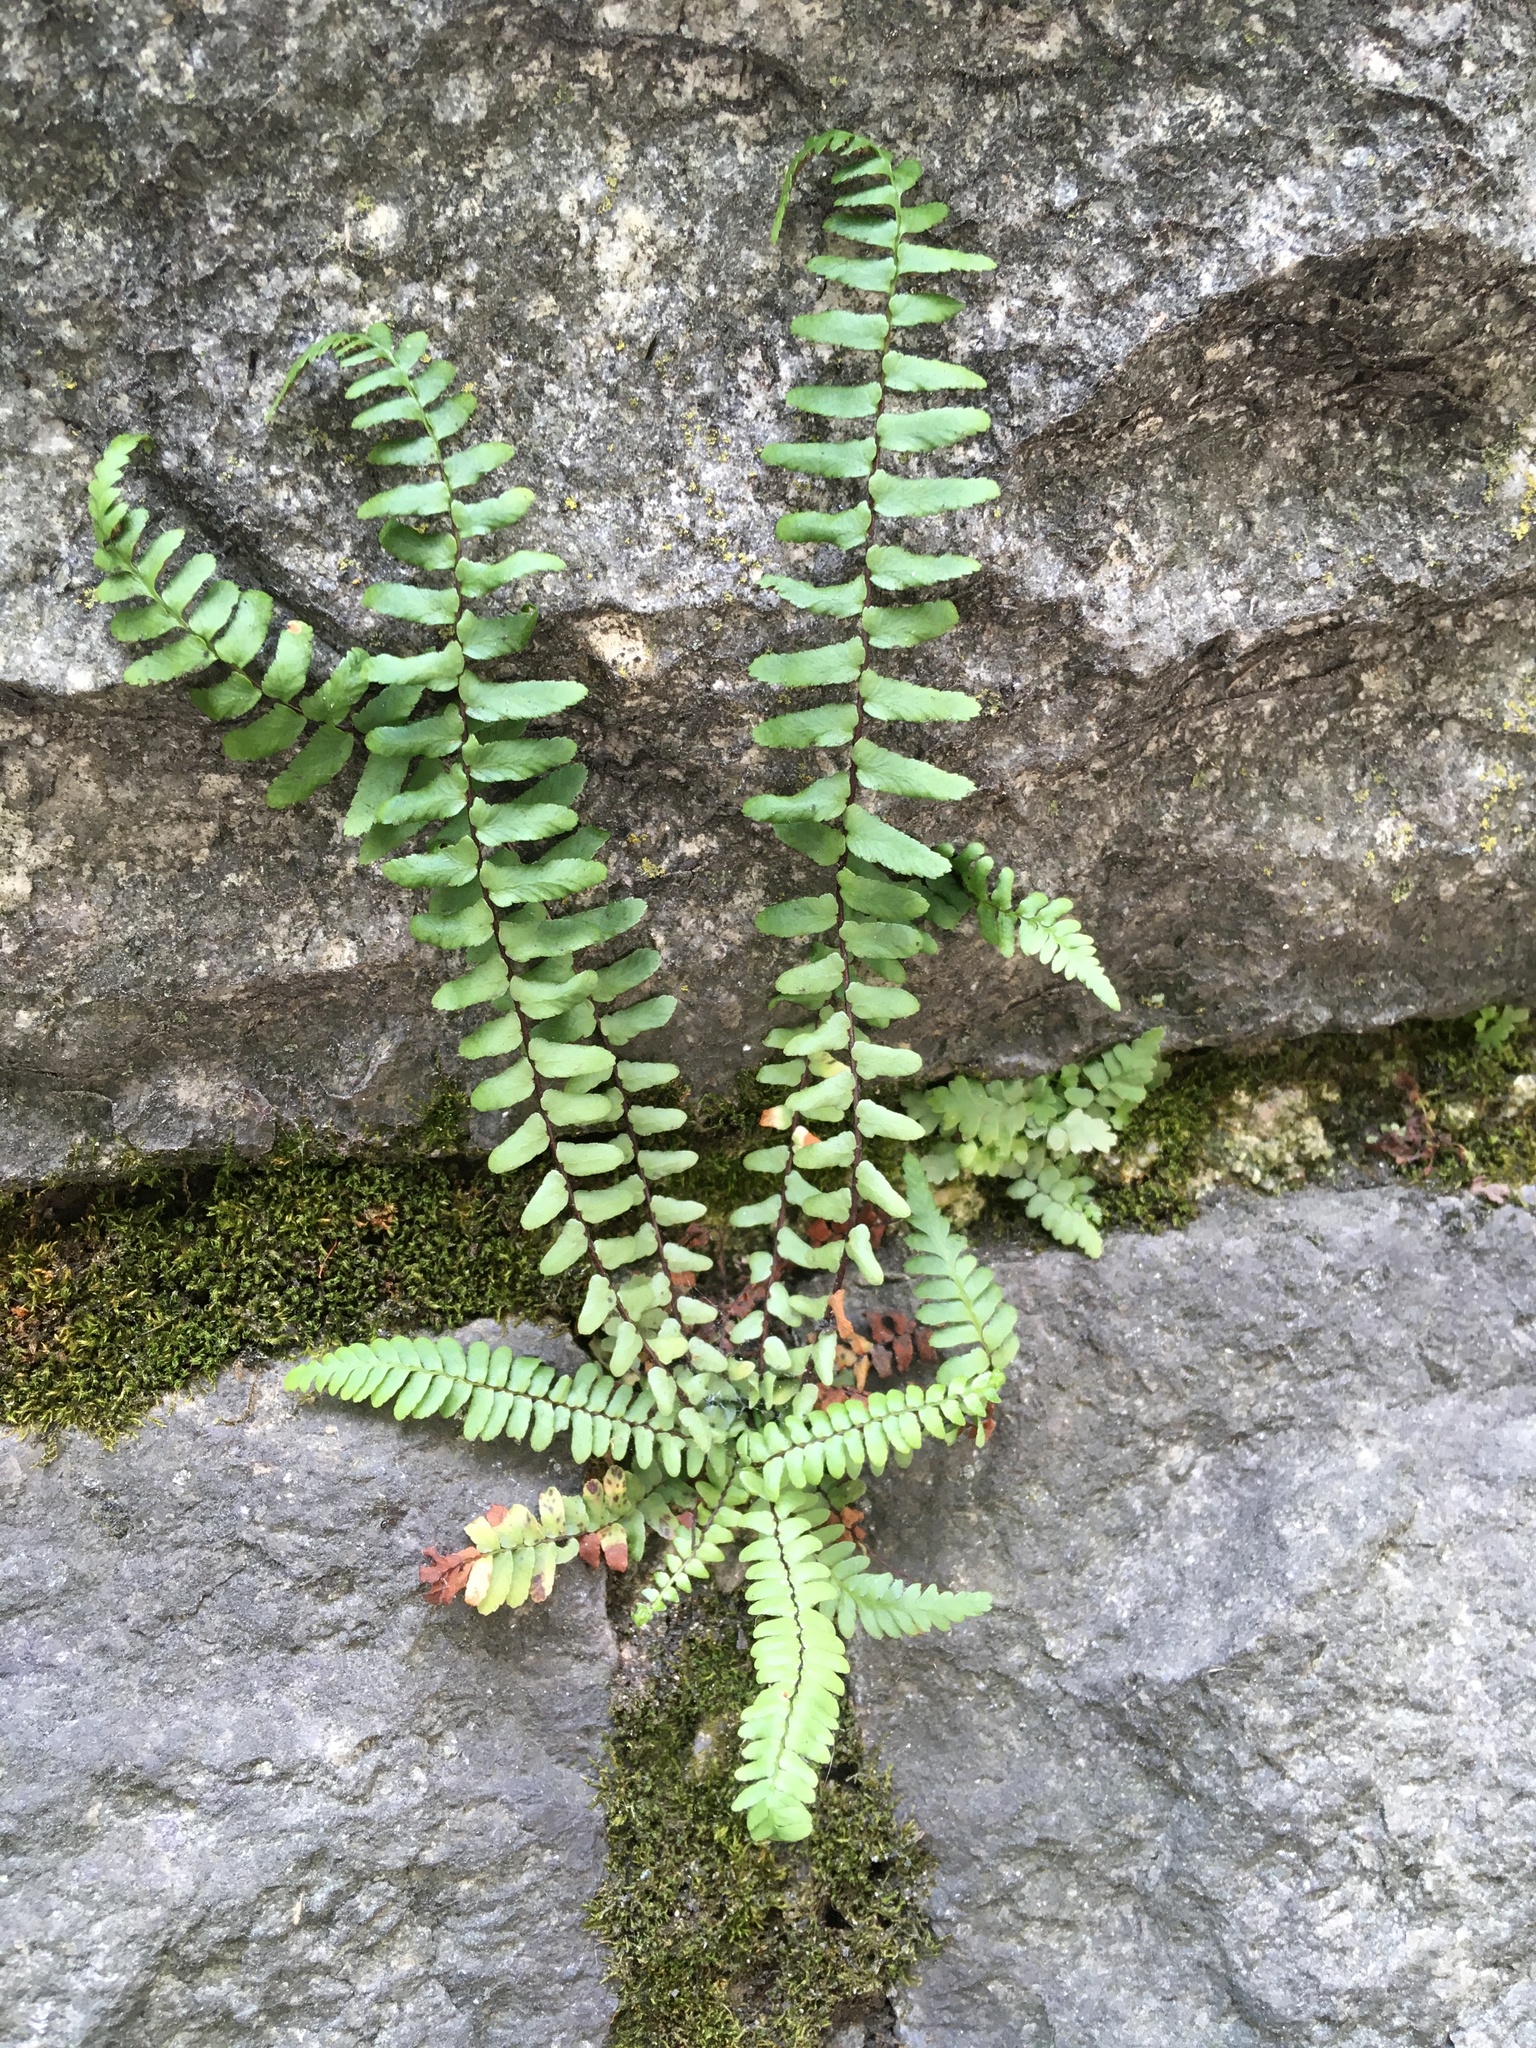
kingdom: Plantae
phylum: Tracheophyta
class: Polypodiopsida
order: Polypodiales
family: Aspleniaceae
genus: Asplenium
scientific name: Asplenium platyneuron
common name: Ebony spleenwort
